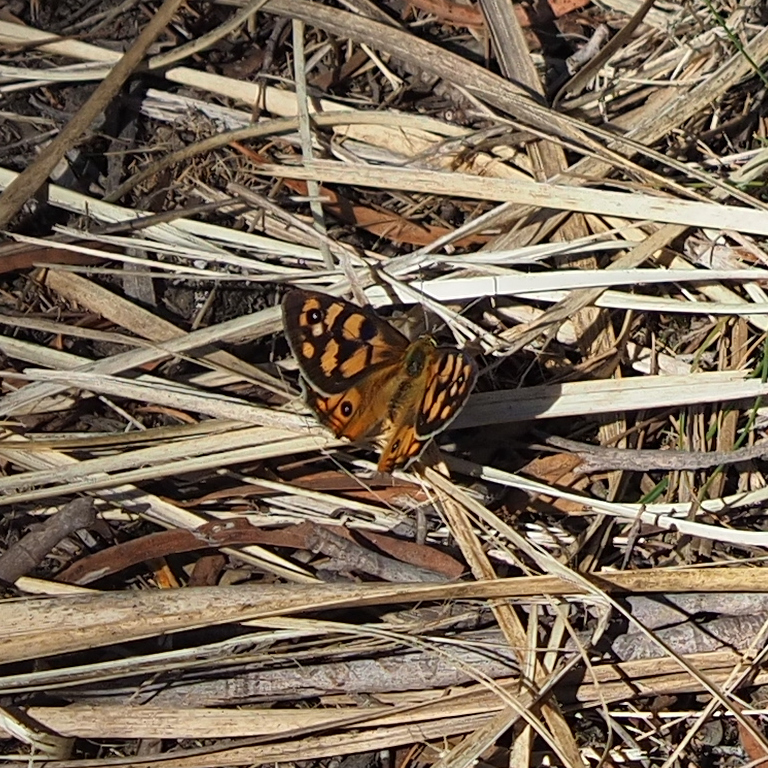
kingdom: Animalia
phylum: Arthropoda
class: Insecta
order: Lepidoptera
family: Nymphalidae
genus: Heteronympha
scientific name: Heteronympha penelope
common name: Shouldered brown
